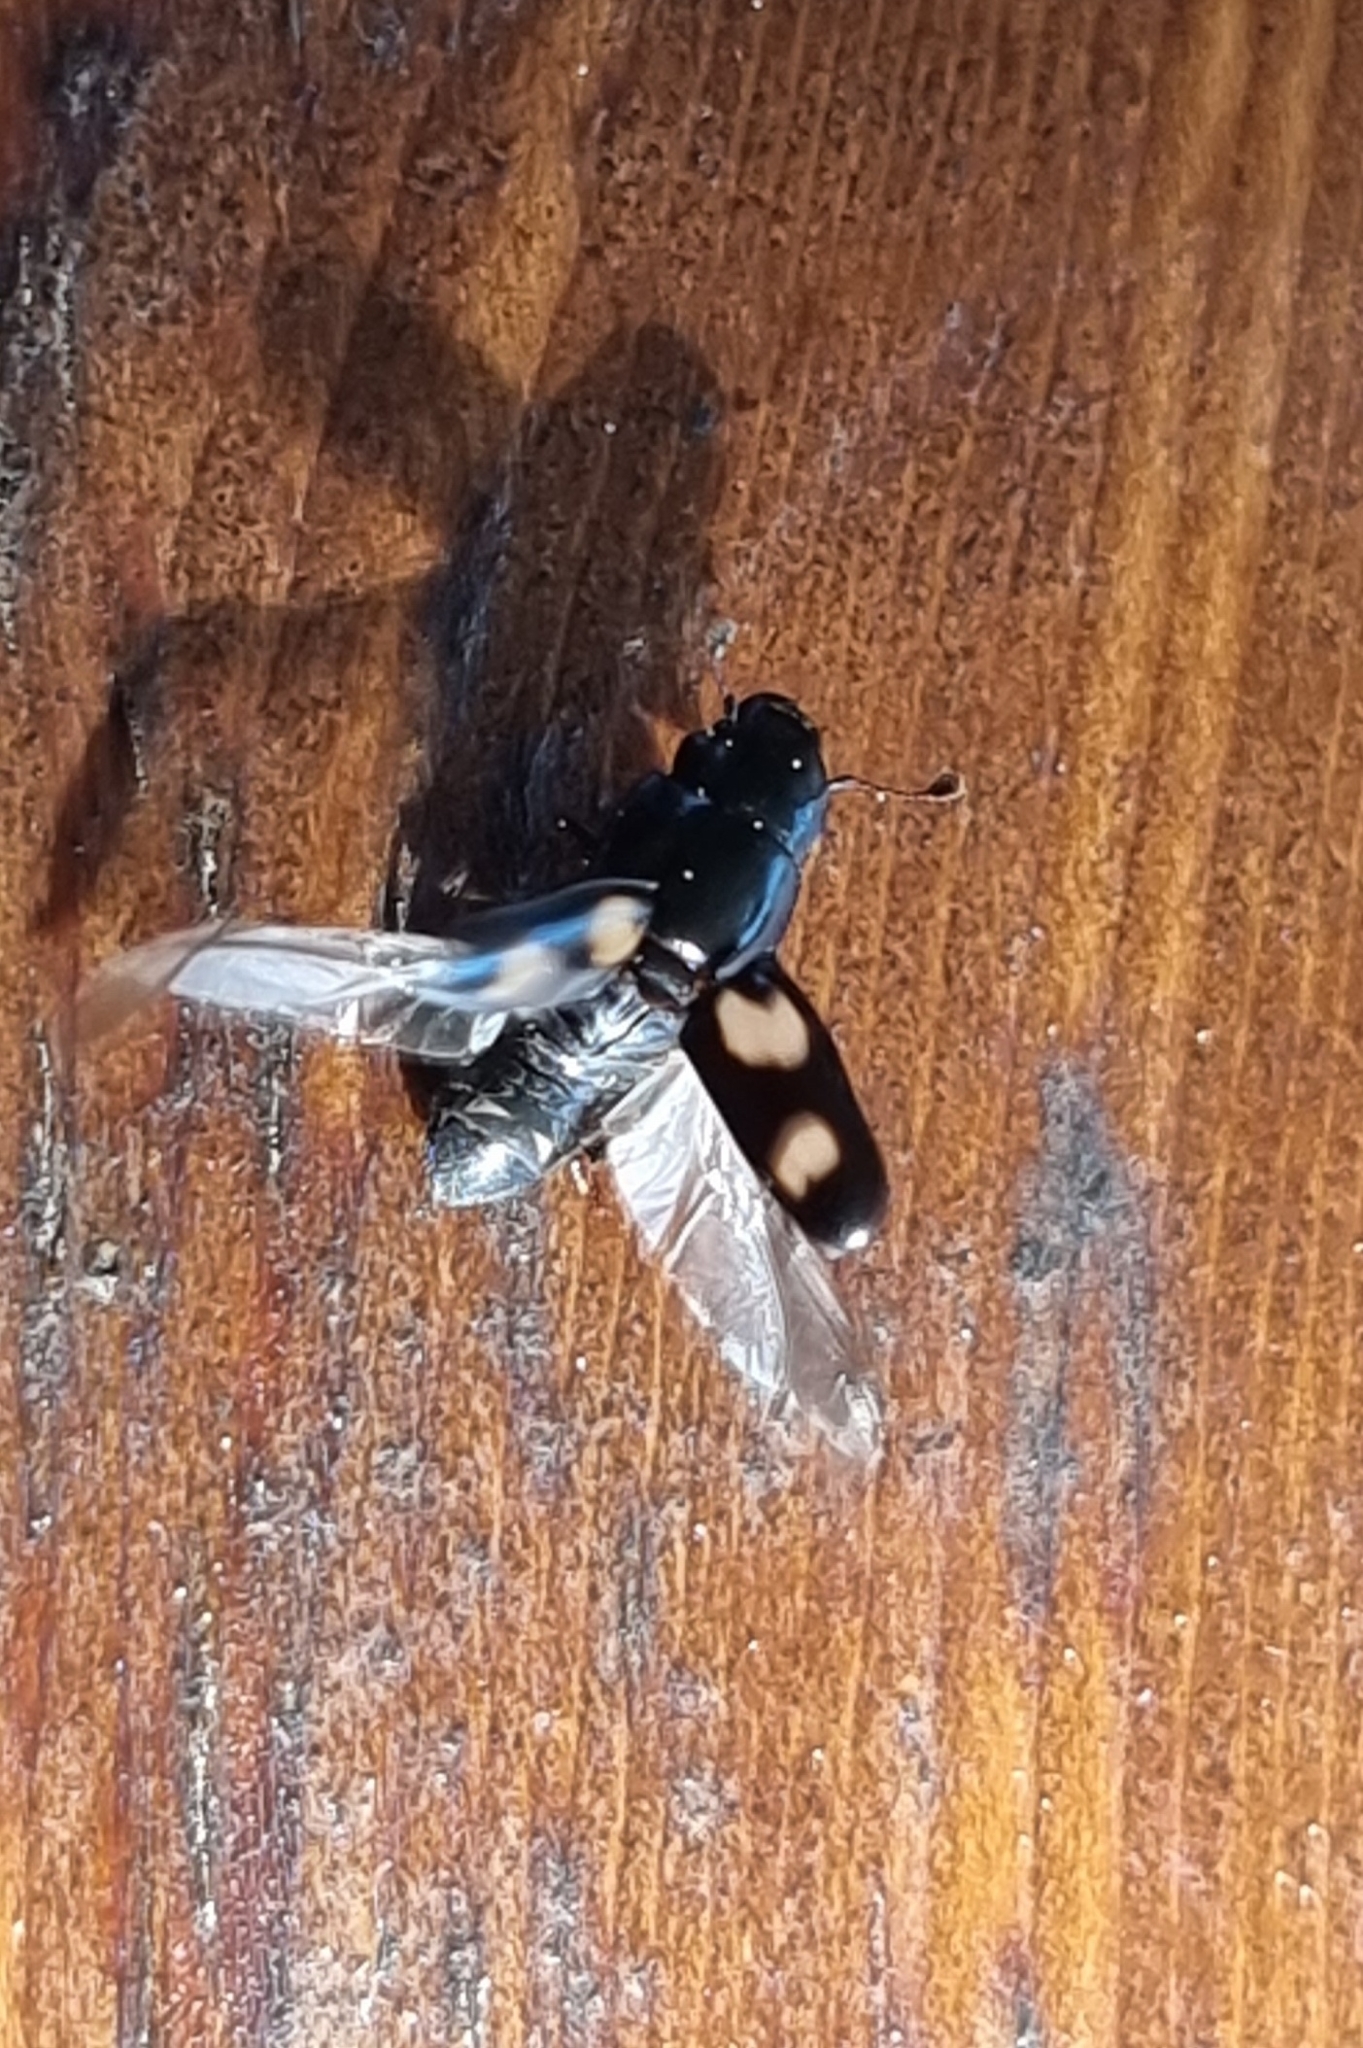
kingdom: Animalia
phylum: Arthropoda
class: Insecta
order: Coleoptera
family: Nitidulidae
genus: Glischrochilus
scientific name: Glischrochilus quadrisignatus
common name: Picnic beetle
